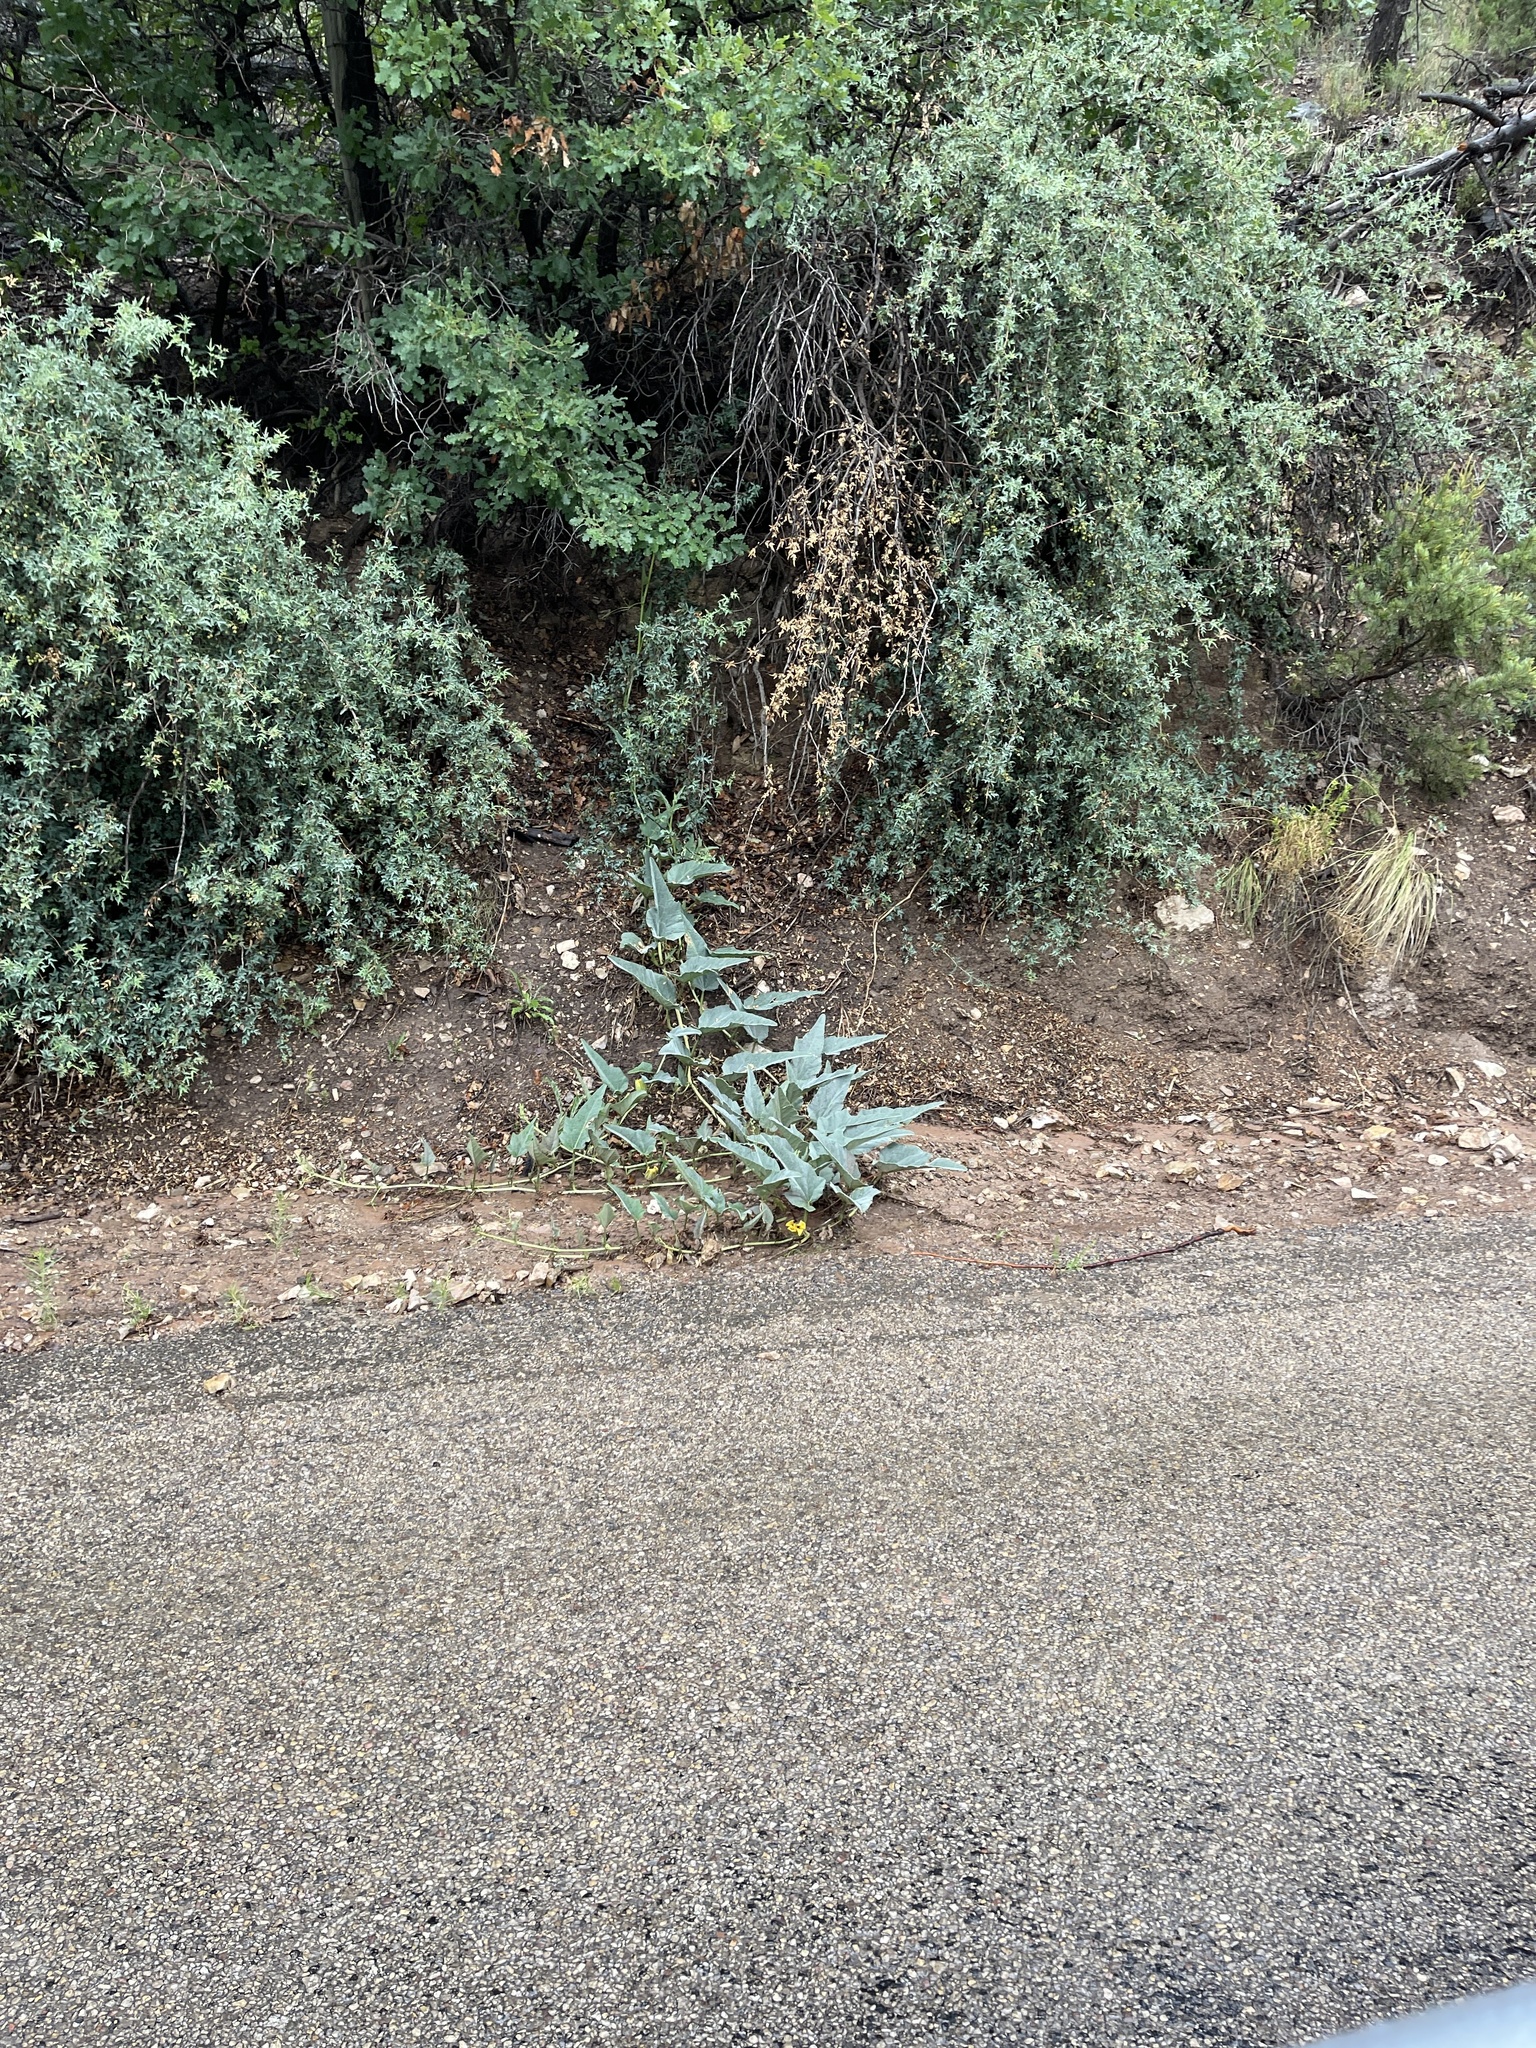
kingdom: Plantae
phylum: Tracheophyta
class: Magnoliopsida
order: Cucurbitales
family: Cucurbitaceae
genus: Cucurbita
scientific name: Cucurbita foetidissima
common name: Buffalo gourd
